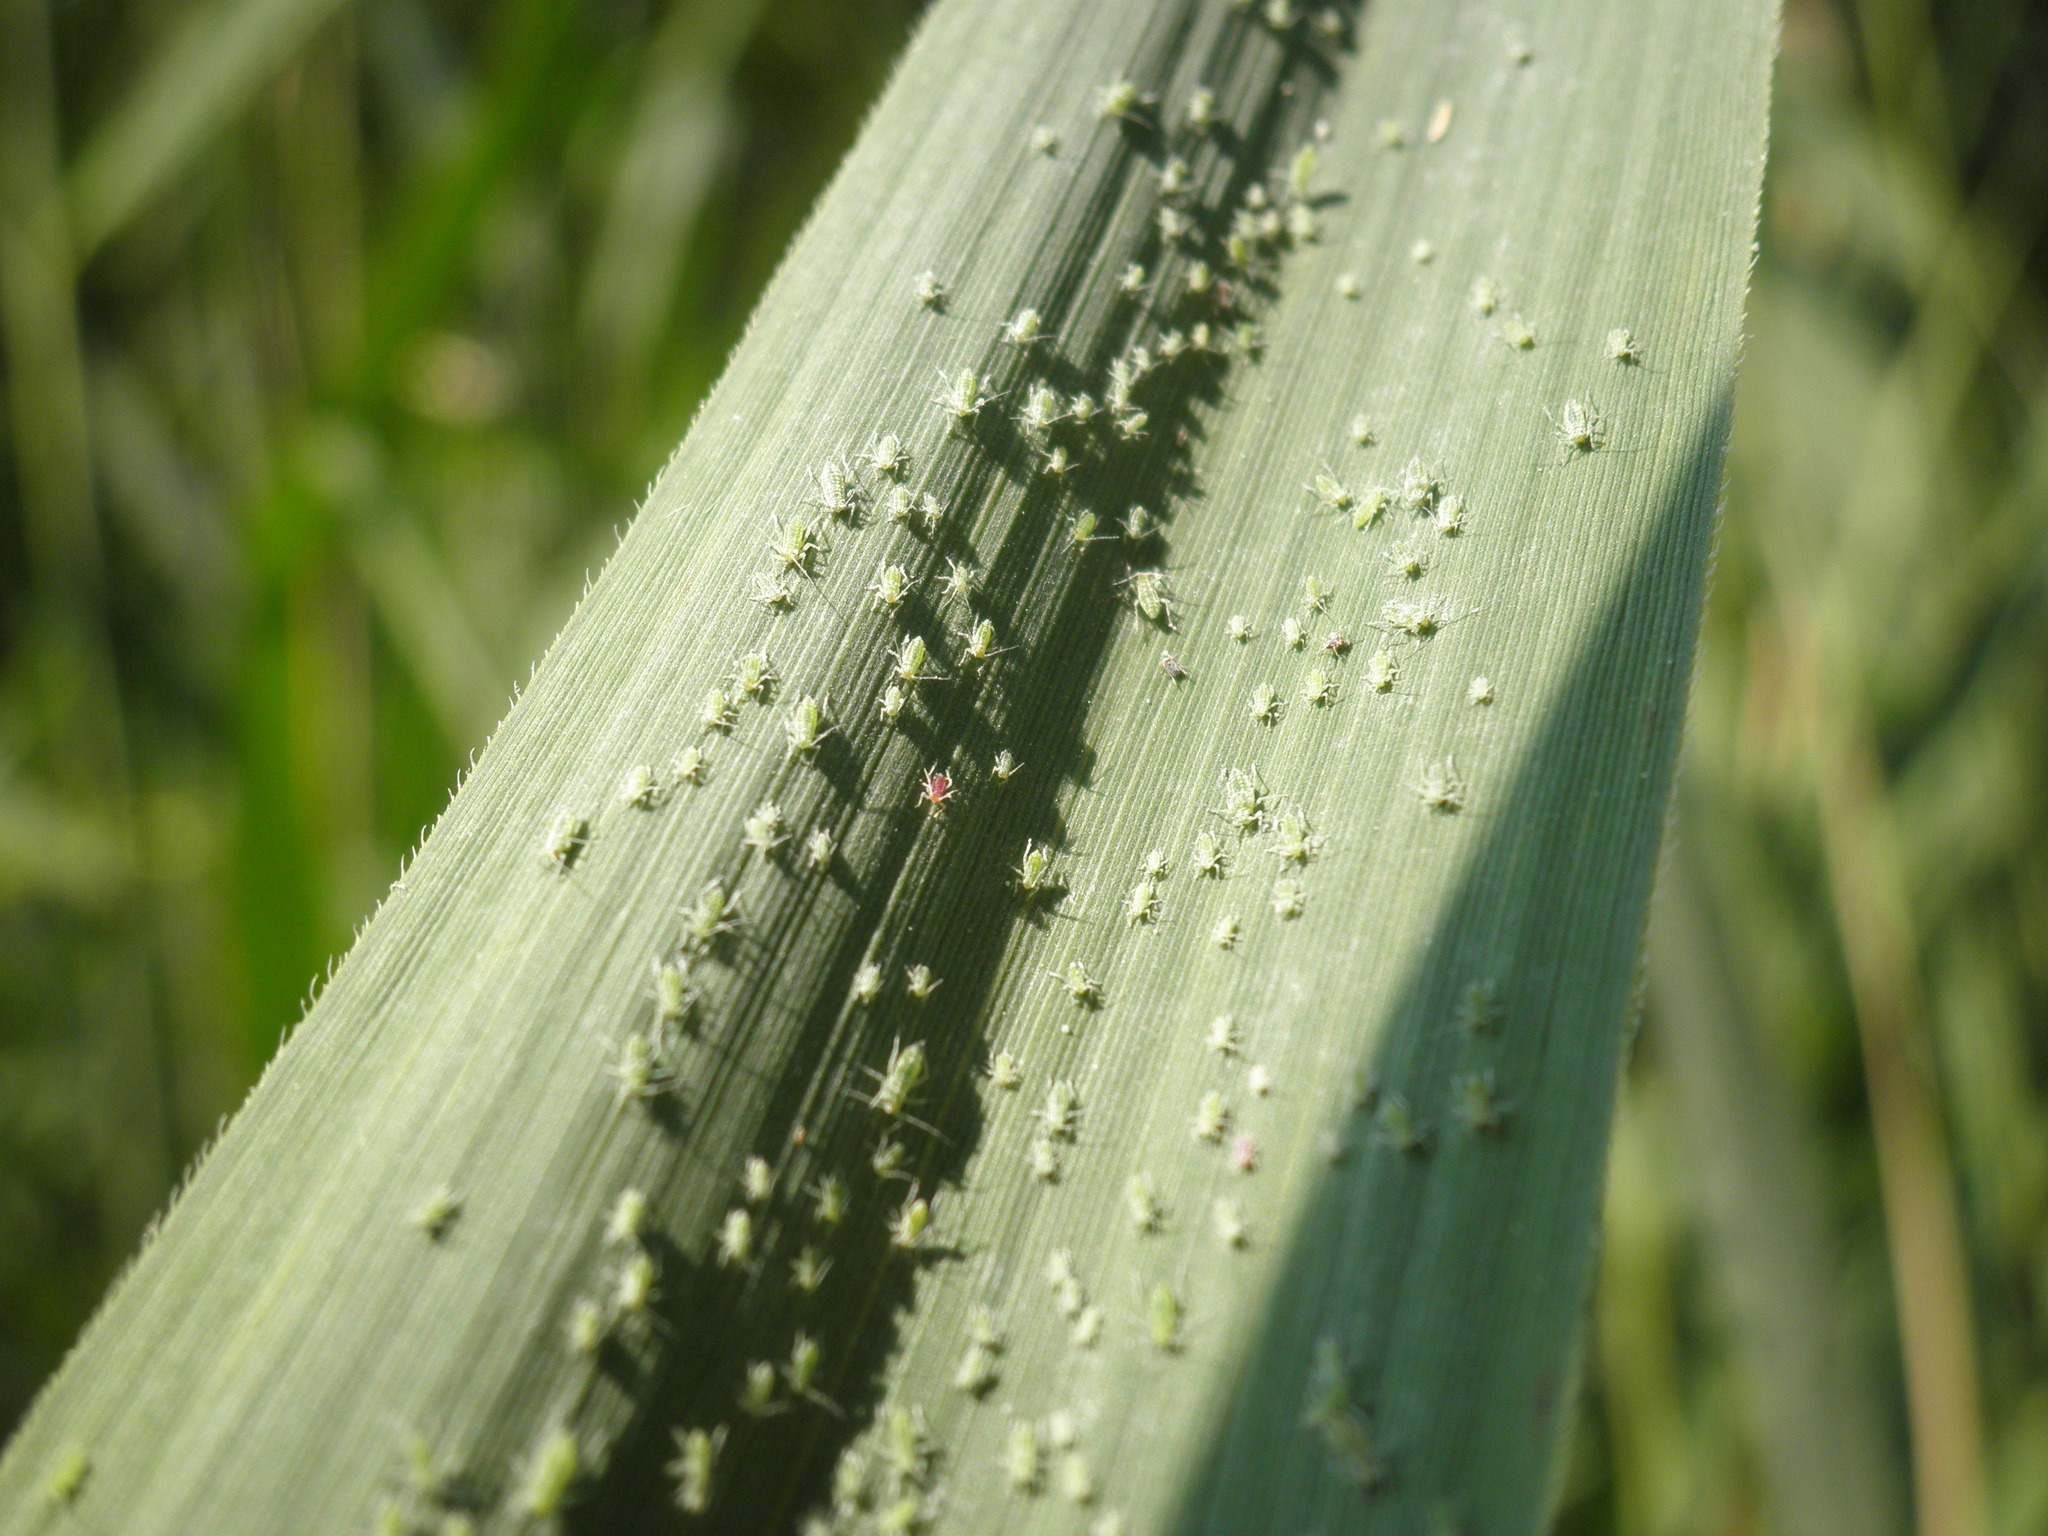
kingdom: Animalia
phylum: Arthropoda
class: Insecta
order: Hemiptera
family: Aphididae
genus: Hyalopterus
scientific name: Hyalopterus pruni
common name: Mealy plum aphid
